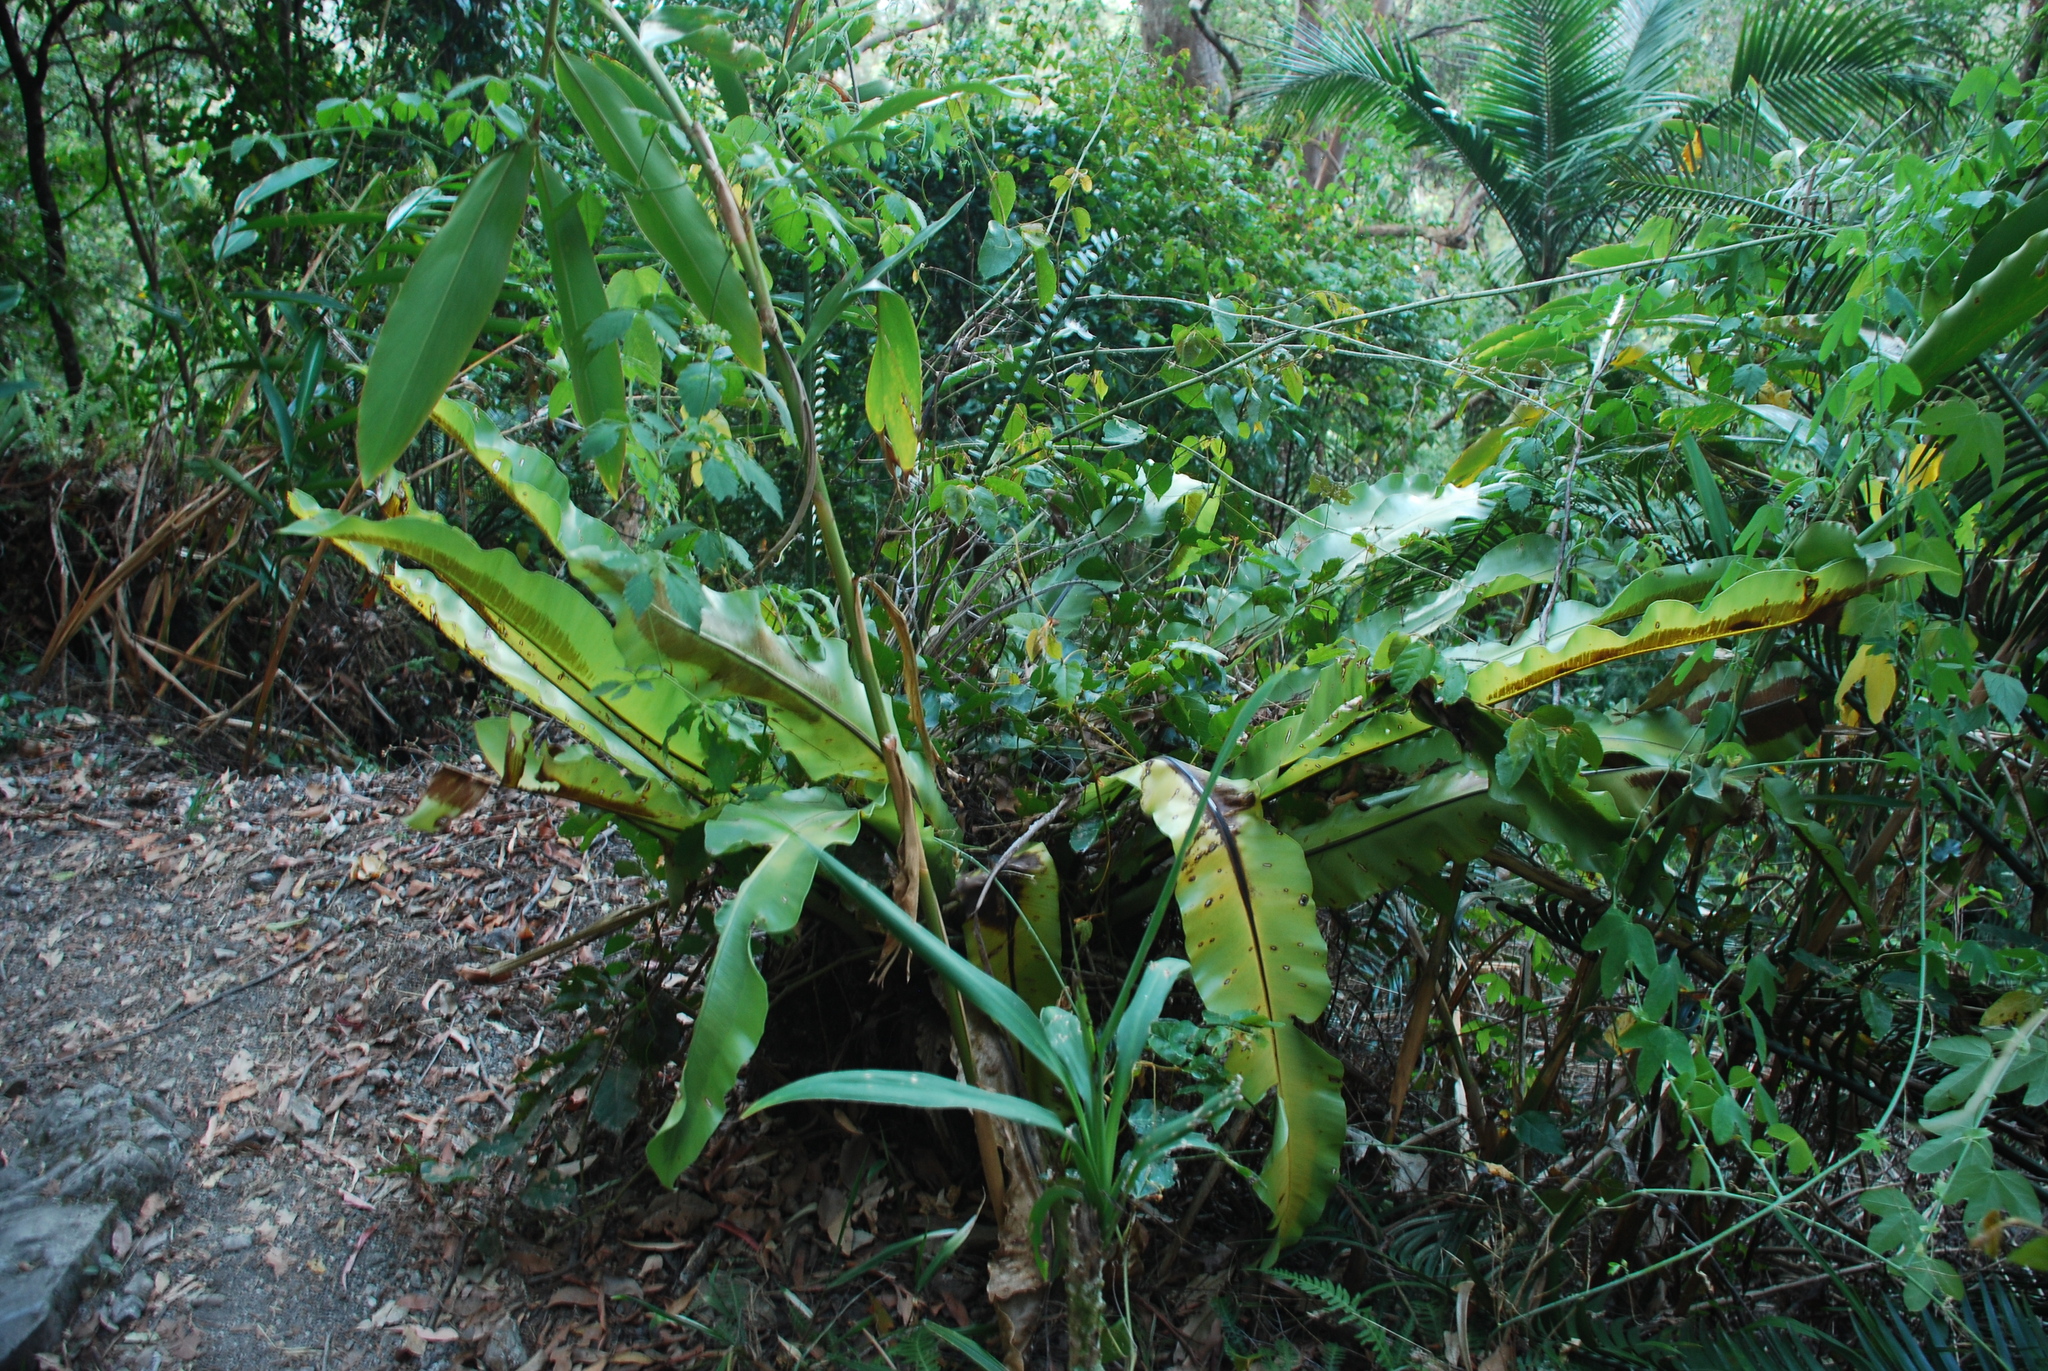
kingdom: Plantae
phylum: Tracheophyta
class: Polypodiopsida
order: Polypodiales
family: Aspleniaceae
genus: Asplenium
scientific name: Asplenium australasicum
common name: Bird's-nest fern
